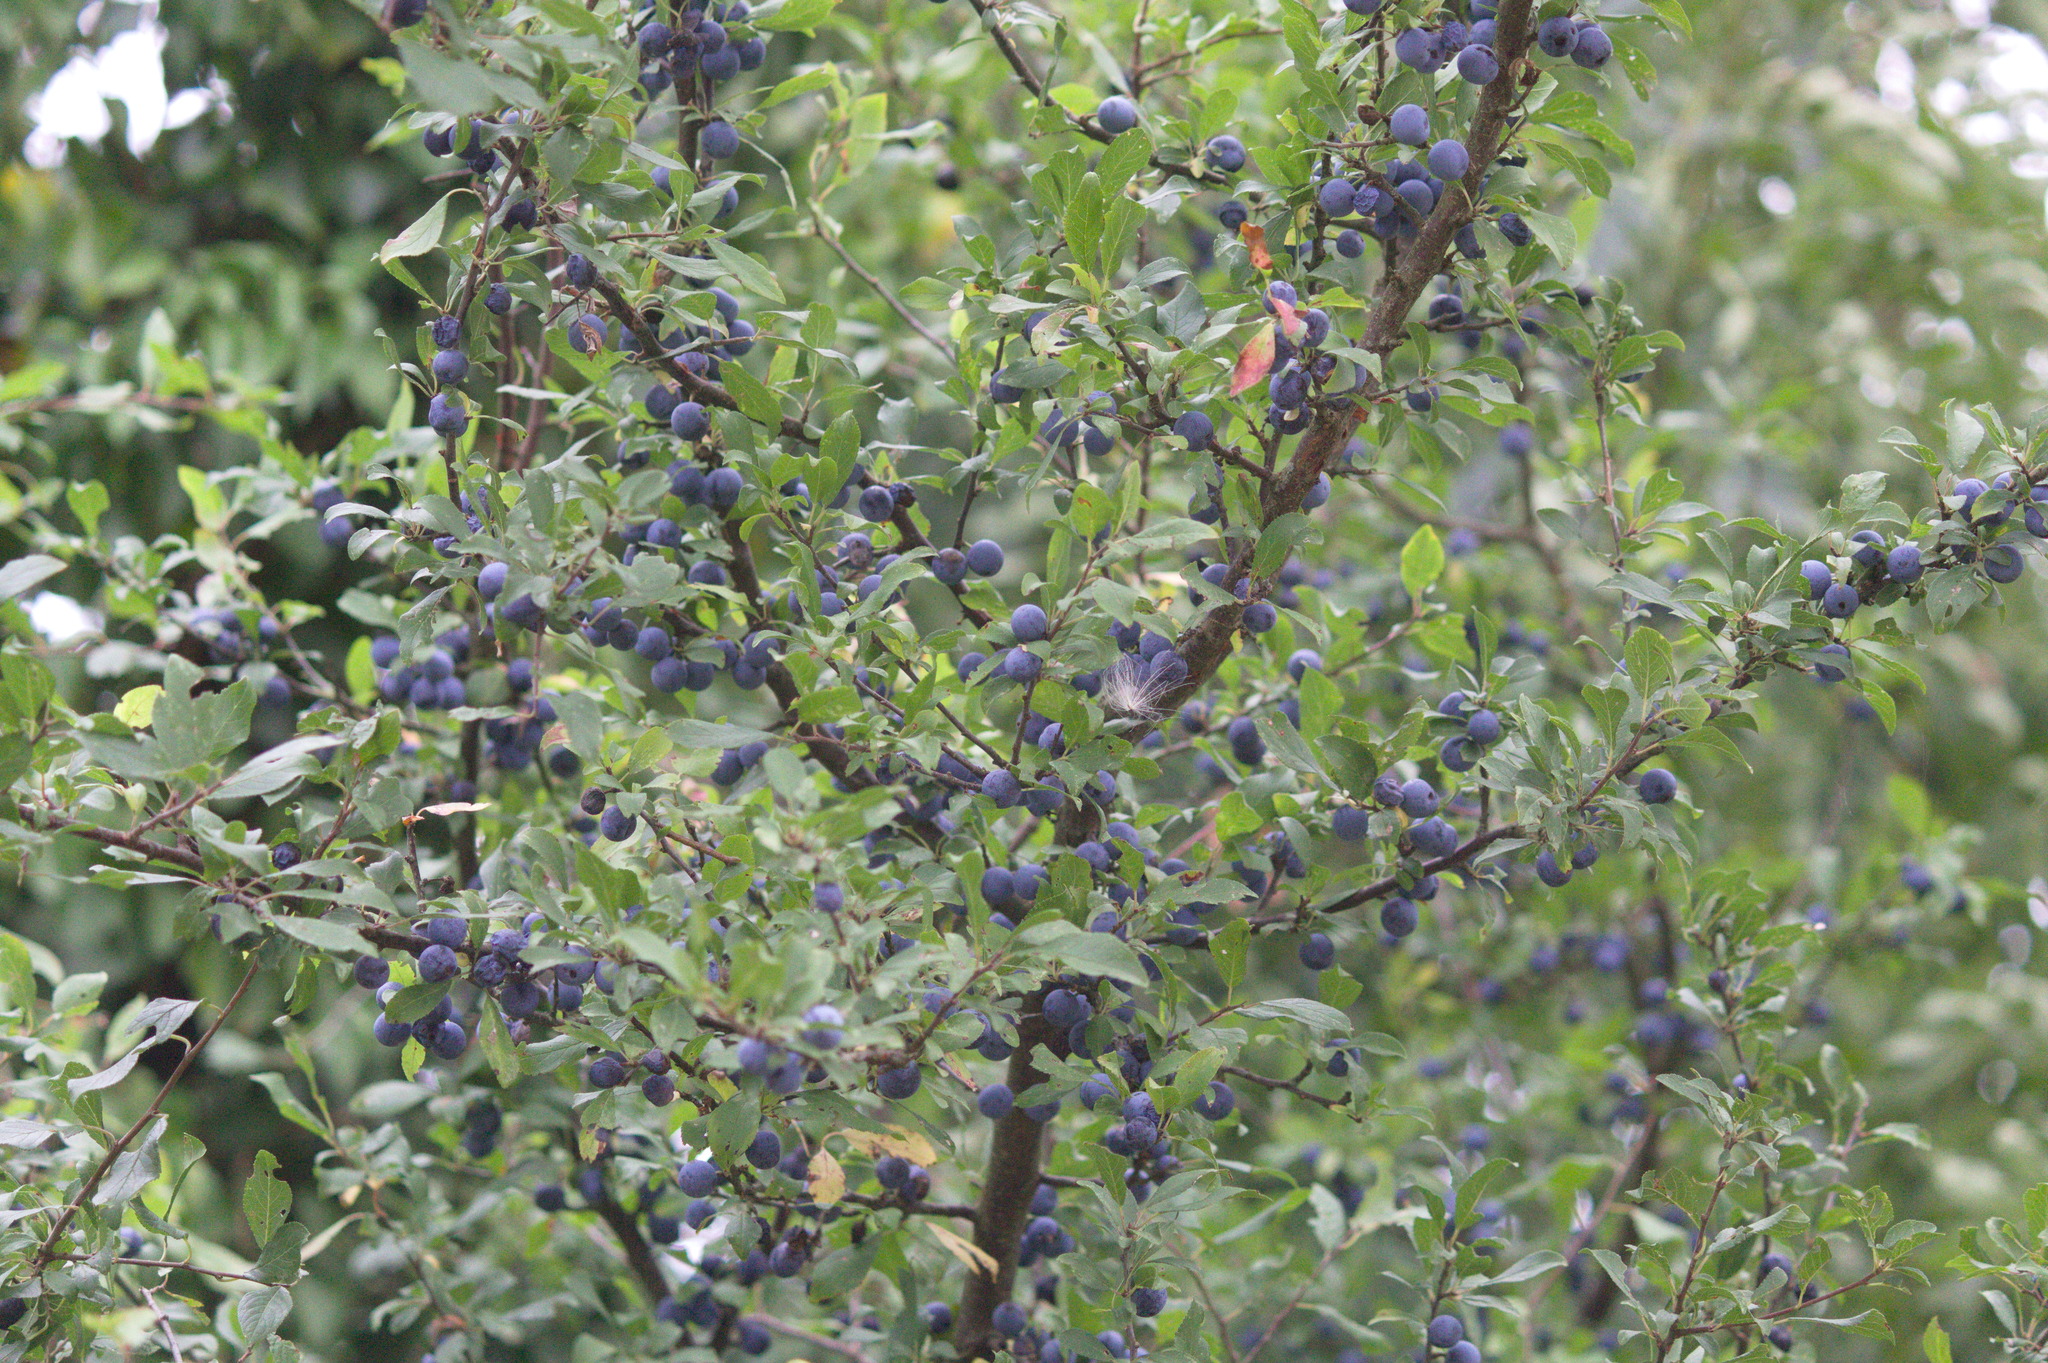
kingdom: Plantae
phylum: Tracheophyta
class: Magnoliopsida
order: Rosales
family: Rosaceae
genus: Prunus
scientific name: Prunus spinosa
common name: Blackthorn
